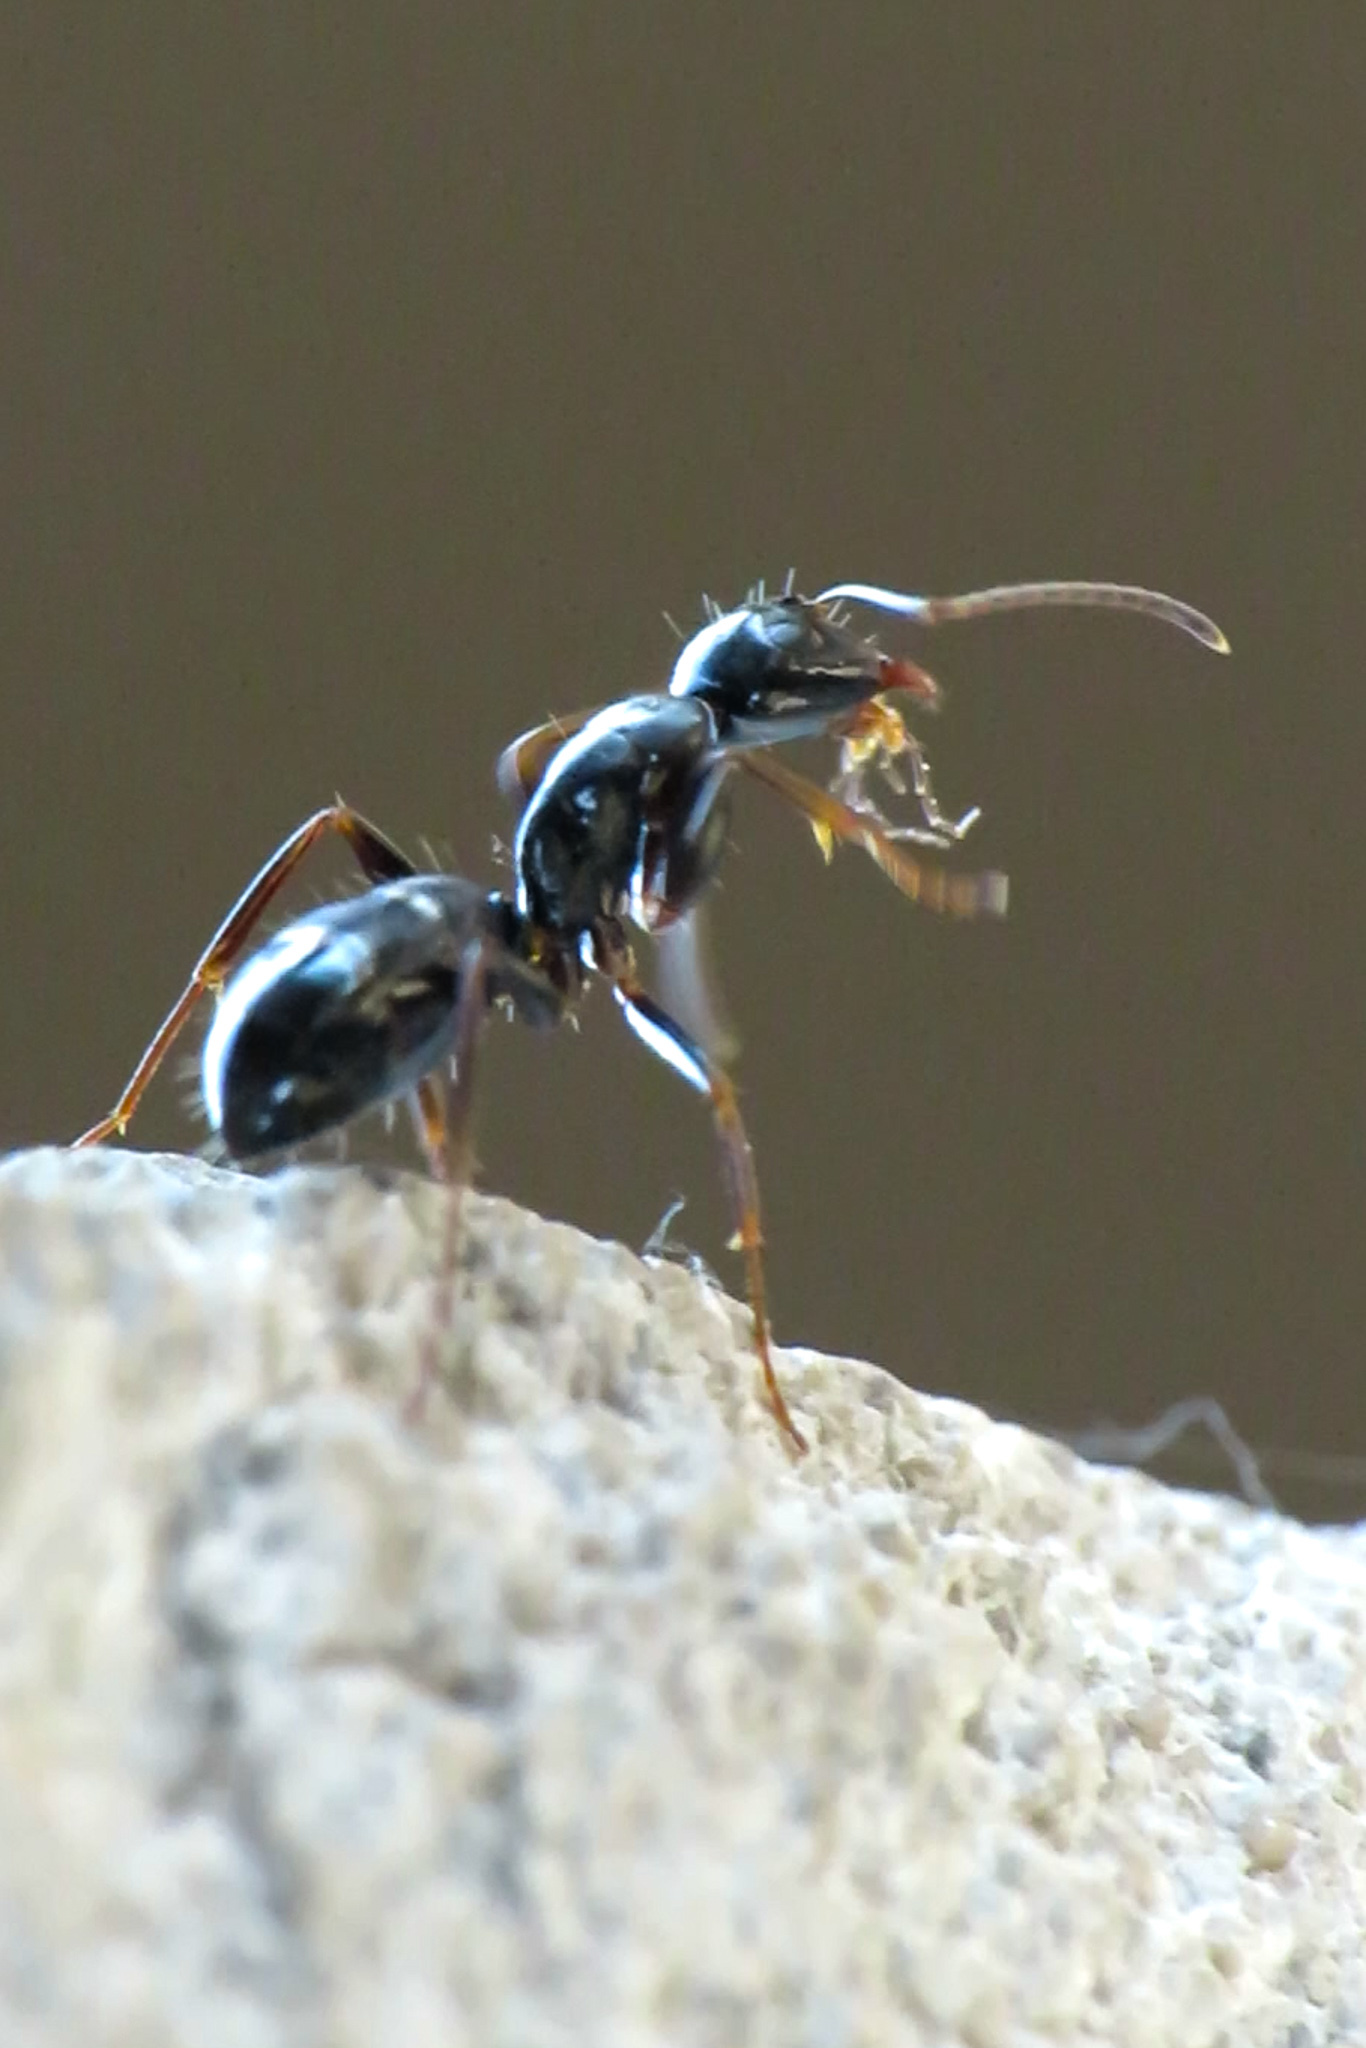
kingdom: Animalia
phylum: Arthropoda
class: Insecta
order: Hymenoptera
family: Formicidae
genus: Camponotus
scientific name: Camponotus nearcticus
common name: Smaller carpenter ant
